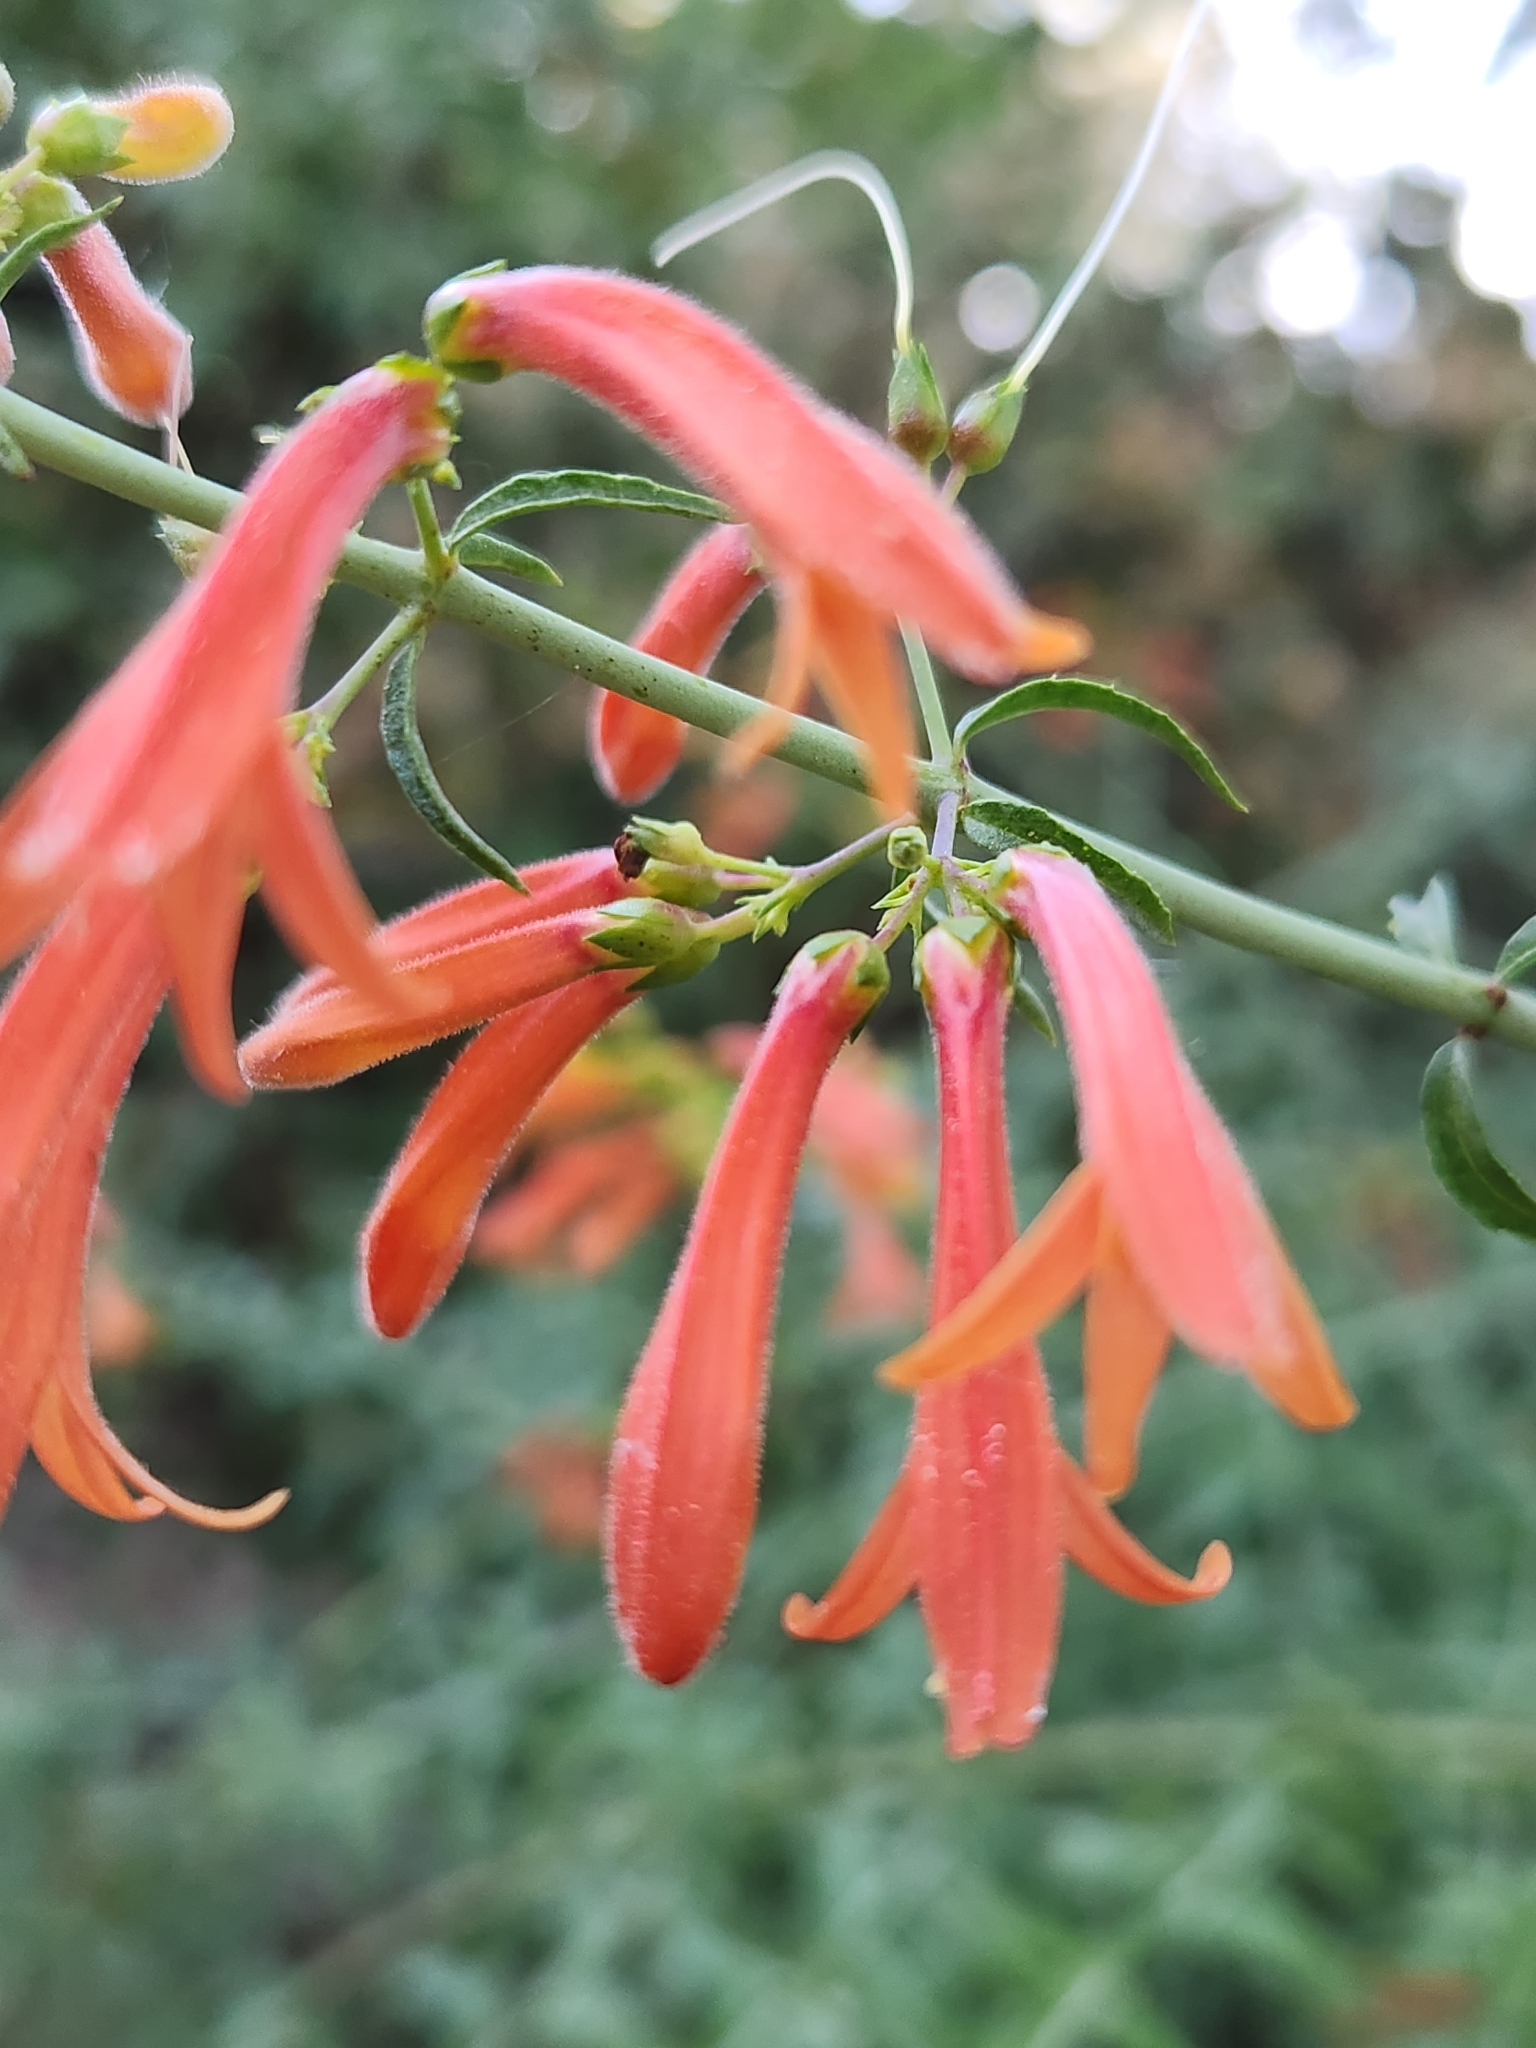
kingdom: Plantae
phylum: Tracheophyta
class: Magnoliopsida
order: Lamiales
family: Plantaginaceae
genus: Keckiella
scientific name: Keckiella ternata
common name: Scarlet keckiella
